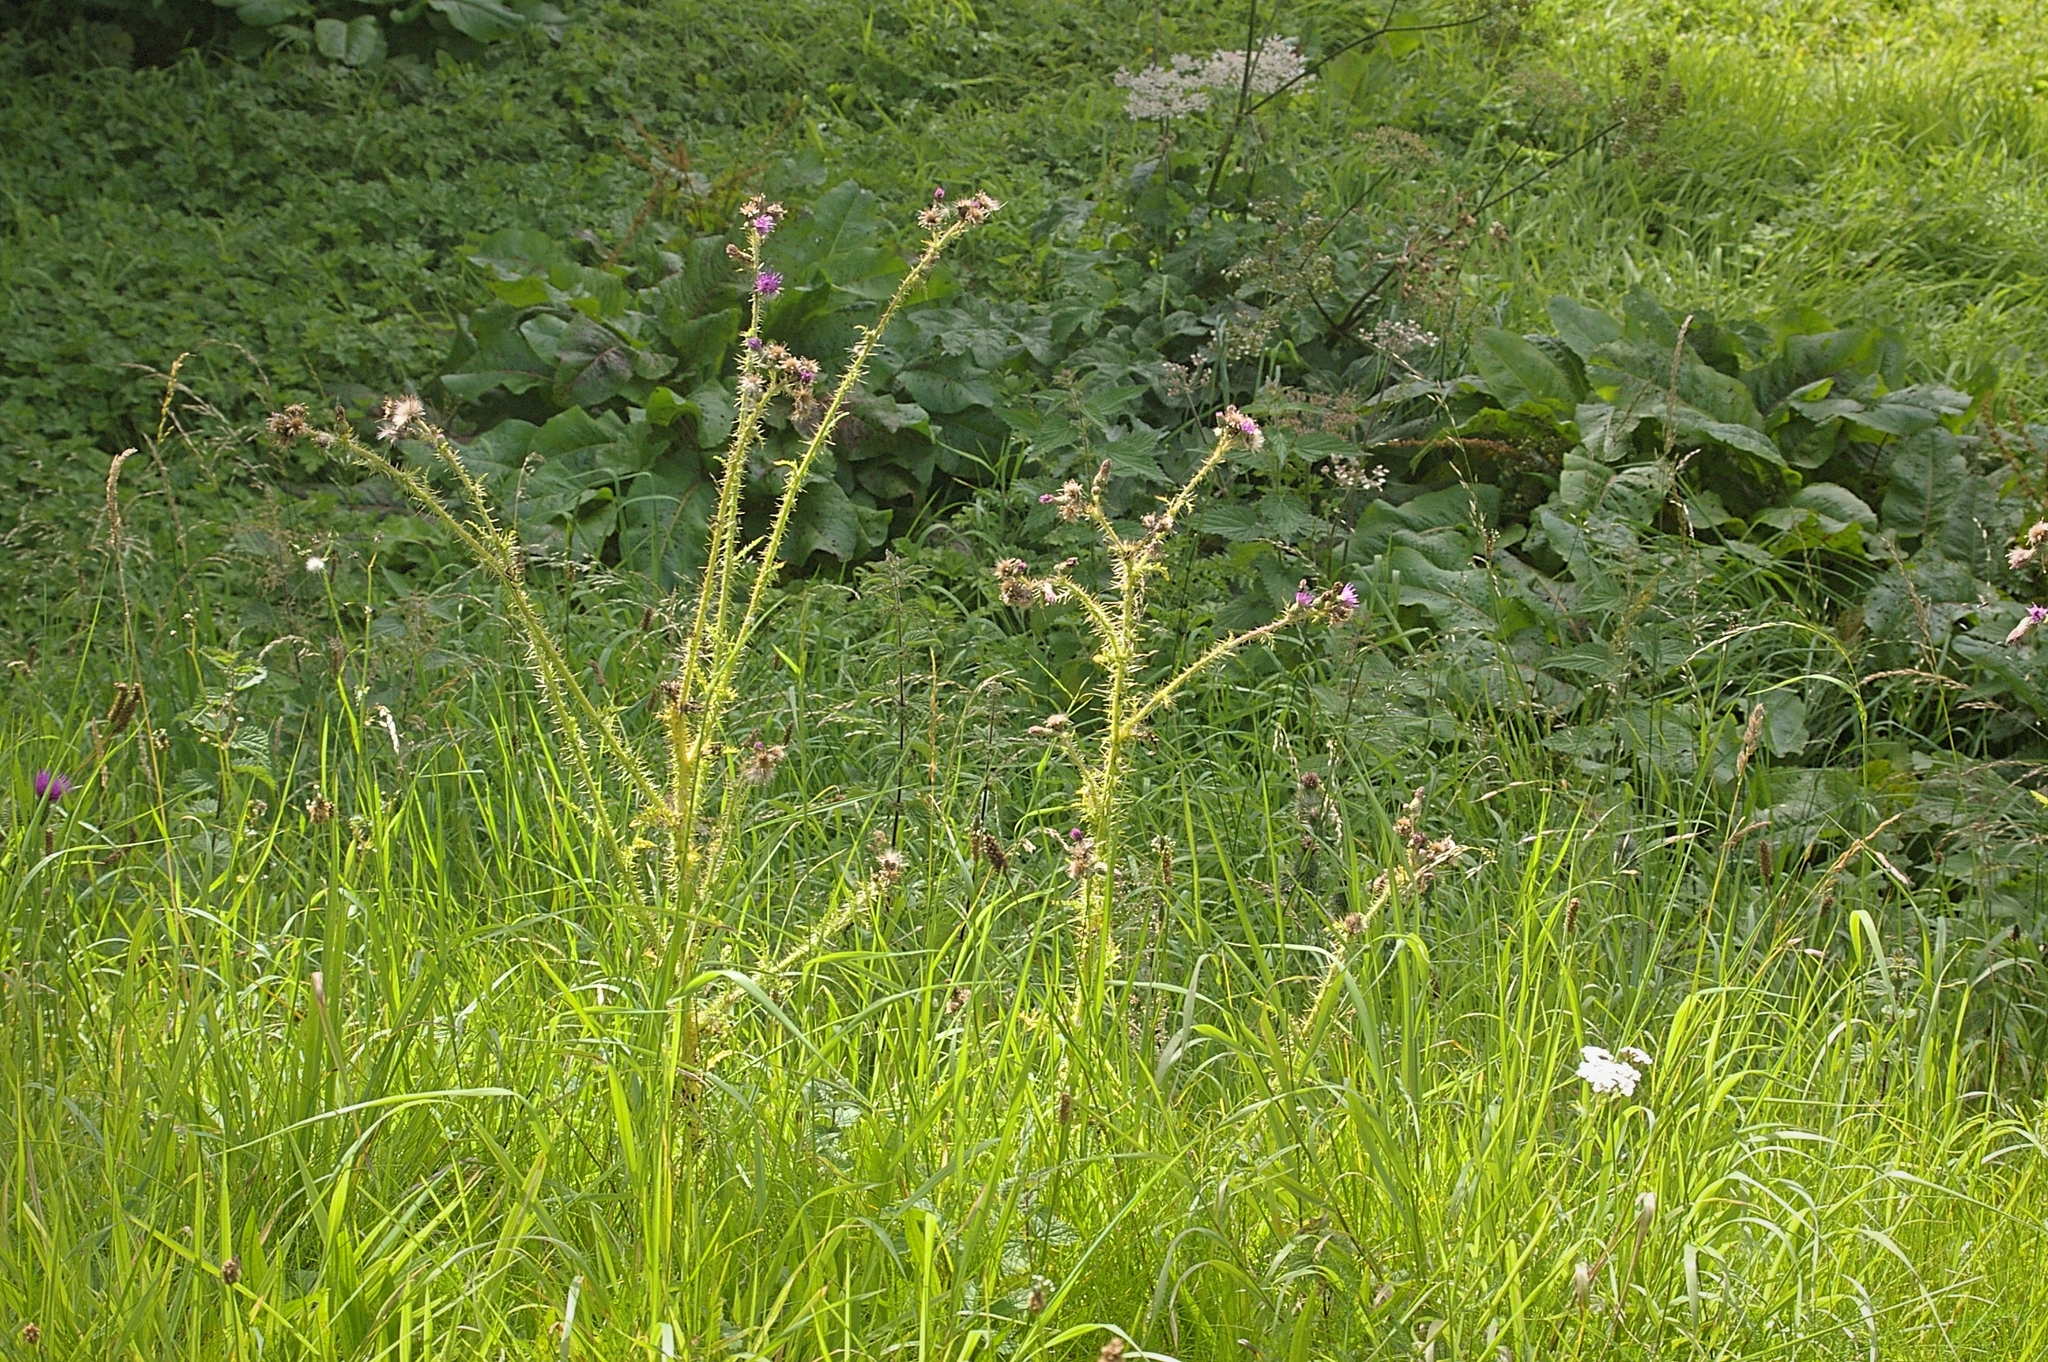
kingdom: Plantae
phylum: Tracheophyta
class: Magnoliopsida
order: Asterales
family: Asteraceae
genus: Cirsium
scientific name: Cirsium palustre
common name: Marsh thistle
